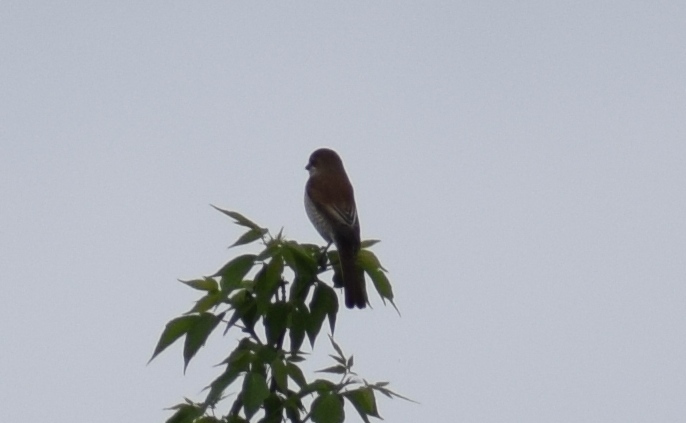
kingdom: Animalia
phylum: Chordata
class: Aves
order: Passeriformes
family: Laniidae
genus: Lanius
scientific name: Lanius collurio
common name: Red-backed shrike
